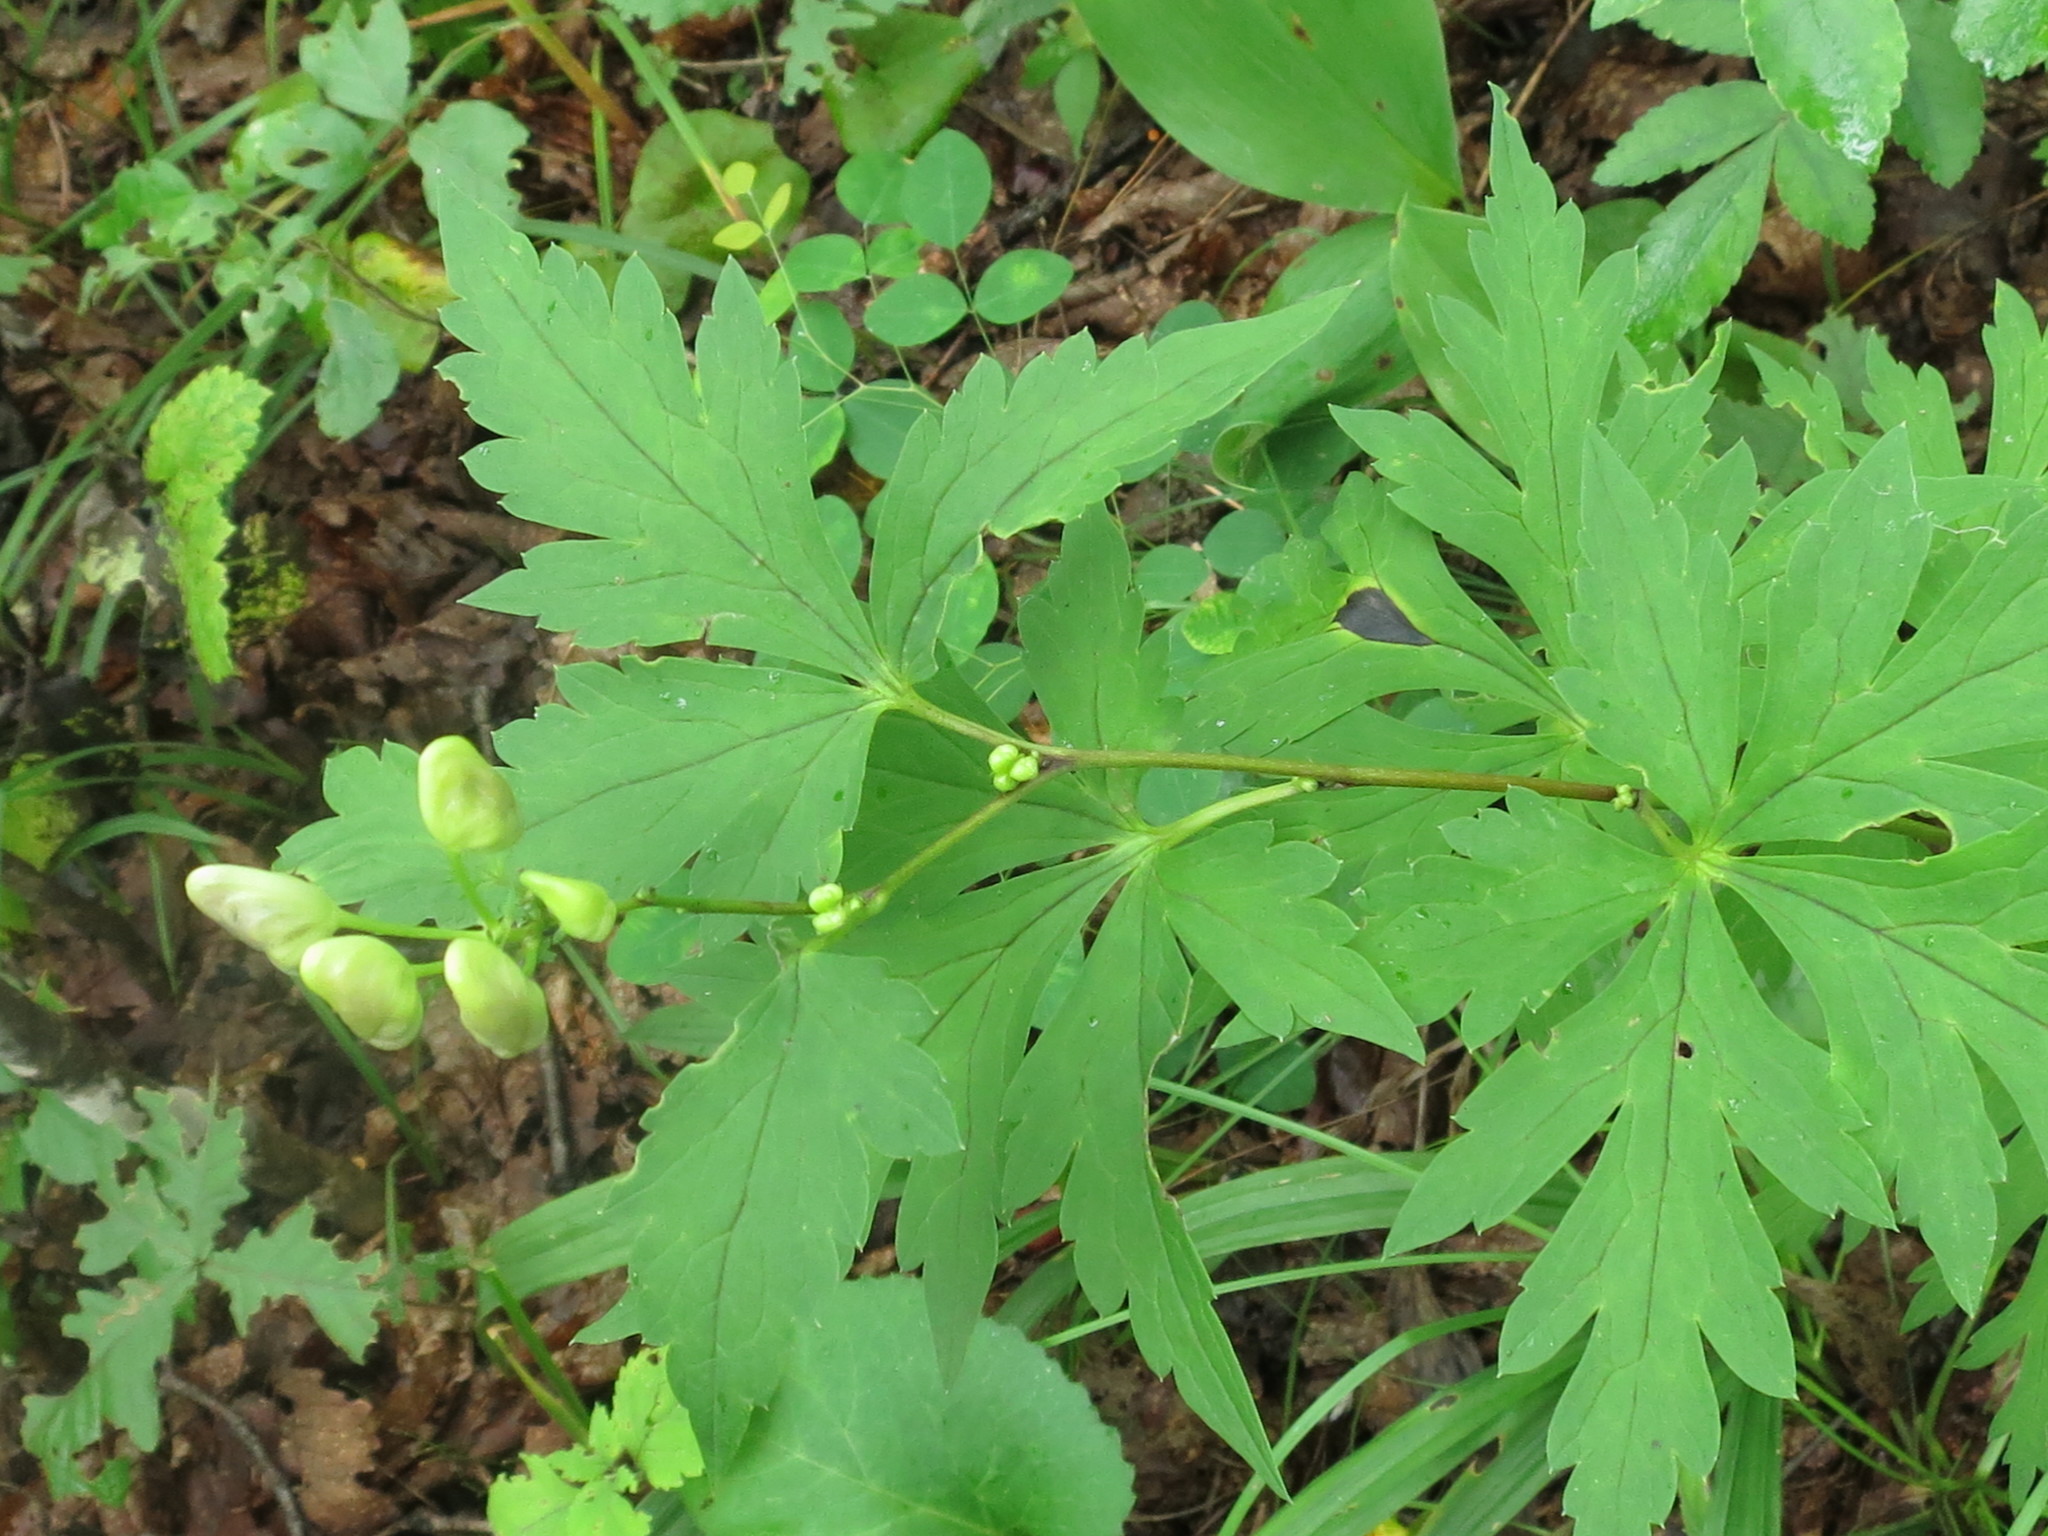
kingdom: Plantae
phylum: Tracheophyta
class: Magnoliopsida
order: Ranunculales
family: Ranunculaceae
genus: Aconitum
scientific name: Aconitum sczukinii
